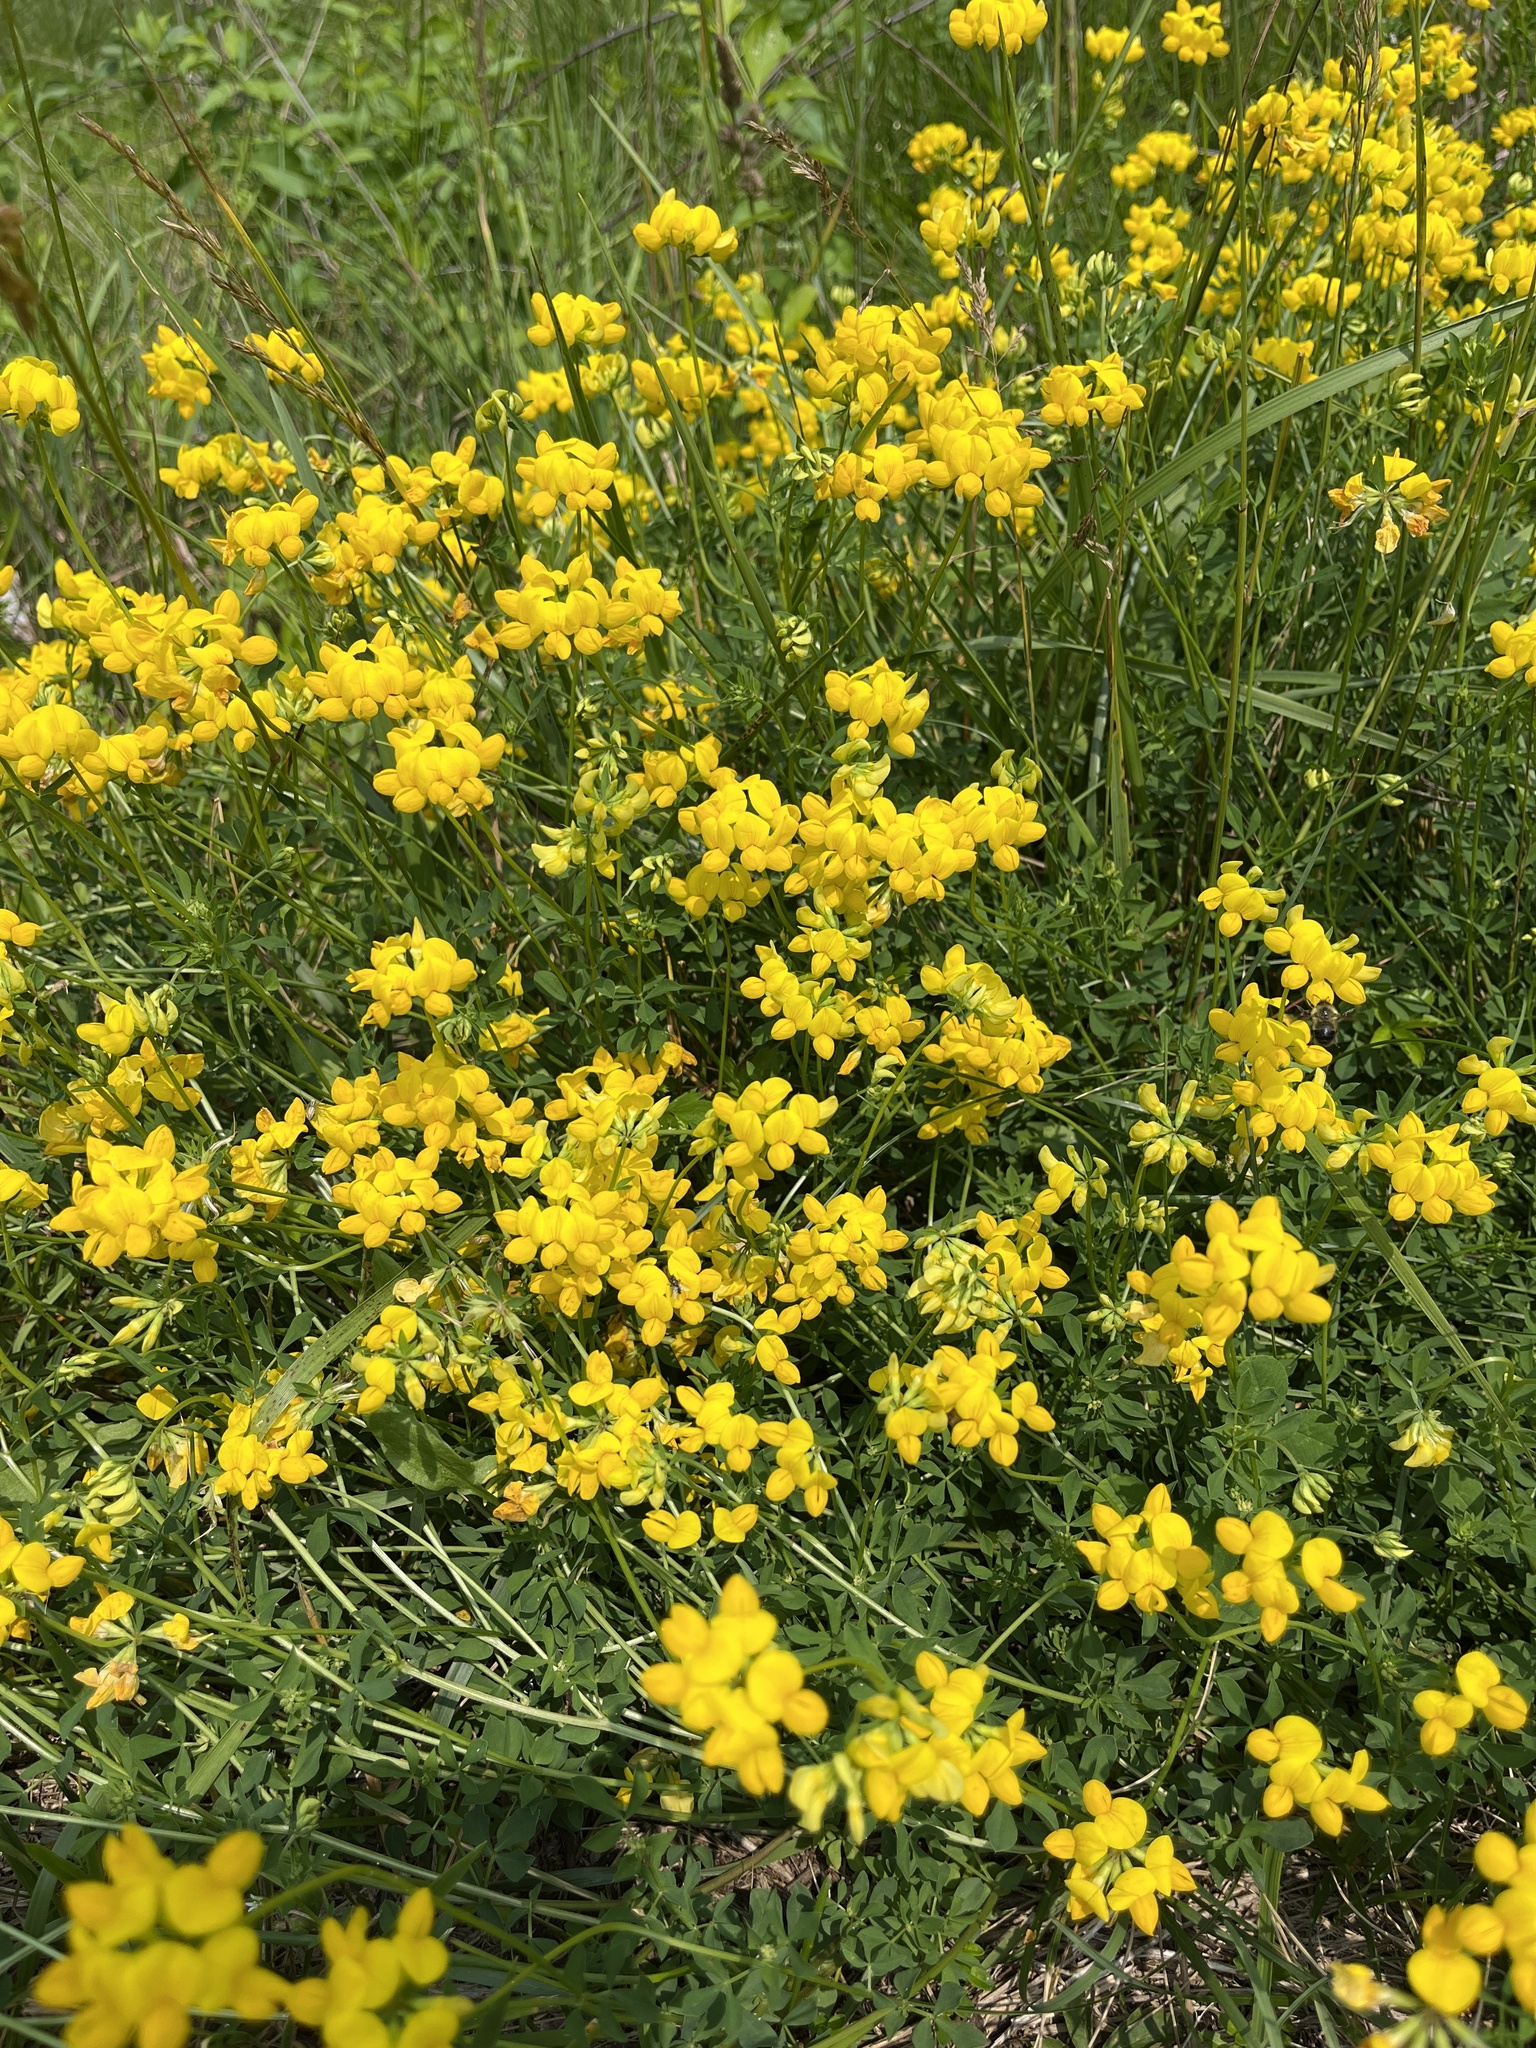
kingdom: Plantae
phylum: Tracheophyta
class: Magnoliopsida
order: Fabales
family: Fabaceae
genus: Lotus
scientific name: Lotus corniculatus
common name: Common bird's-foot-trefoil
